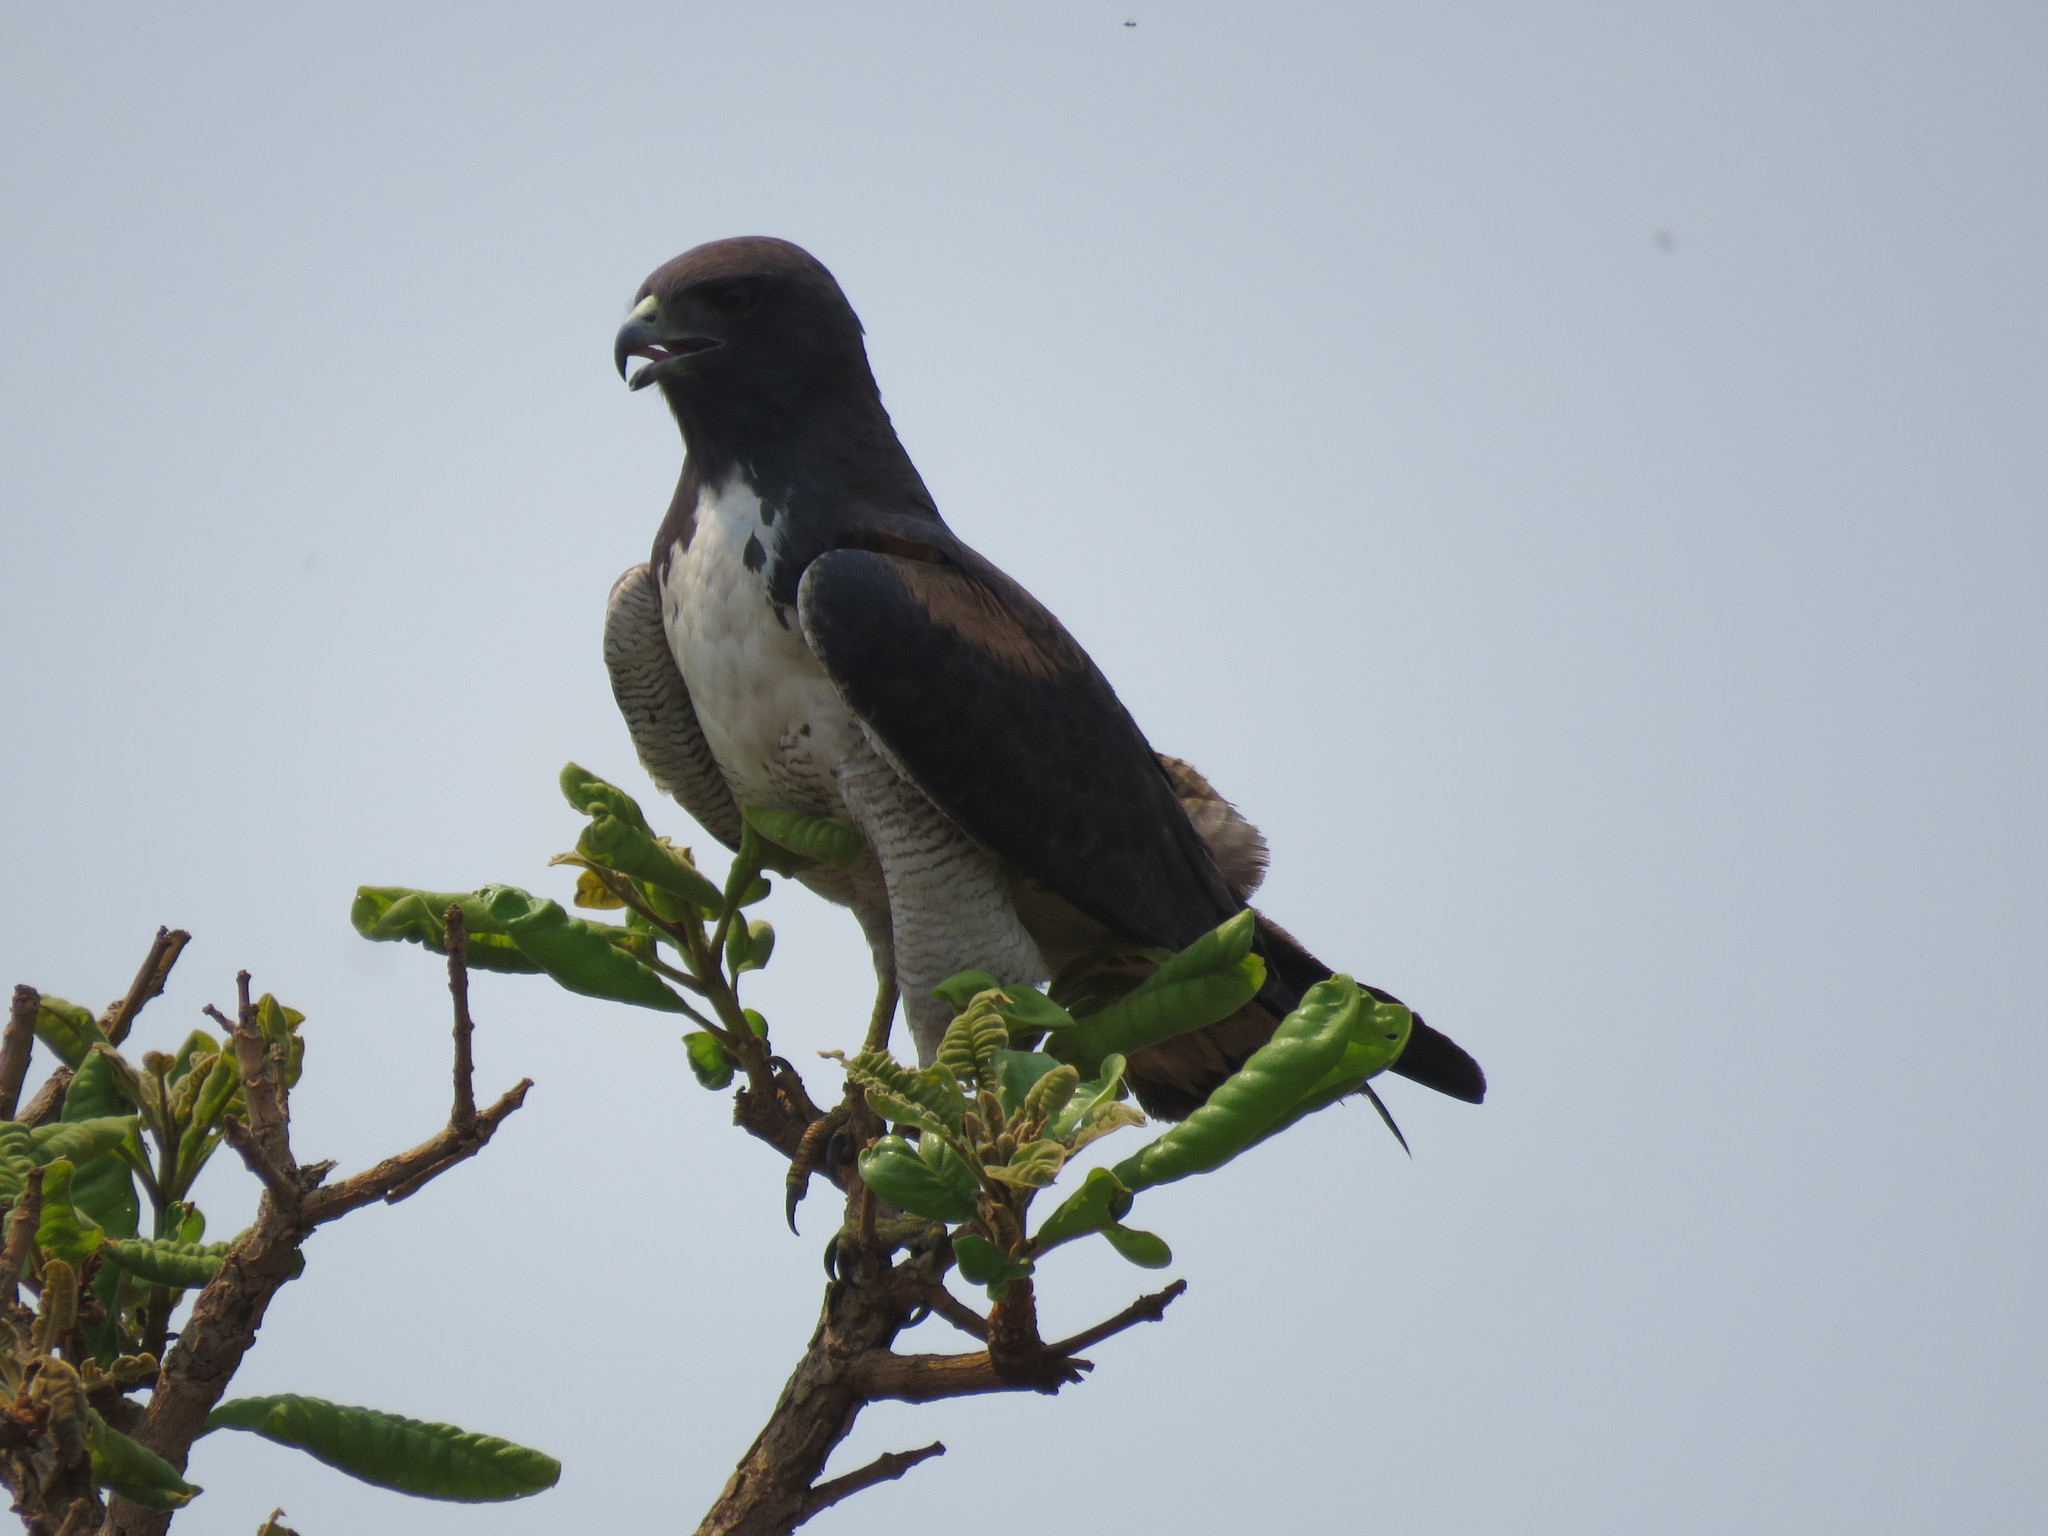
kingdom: Animalia
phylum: Chordata
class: Aves
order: Accipitriformes
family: Accipitridae
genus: Buteo
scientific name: Buteo albicaudatus
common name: White-tailed hawk
